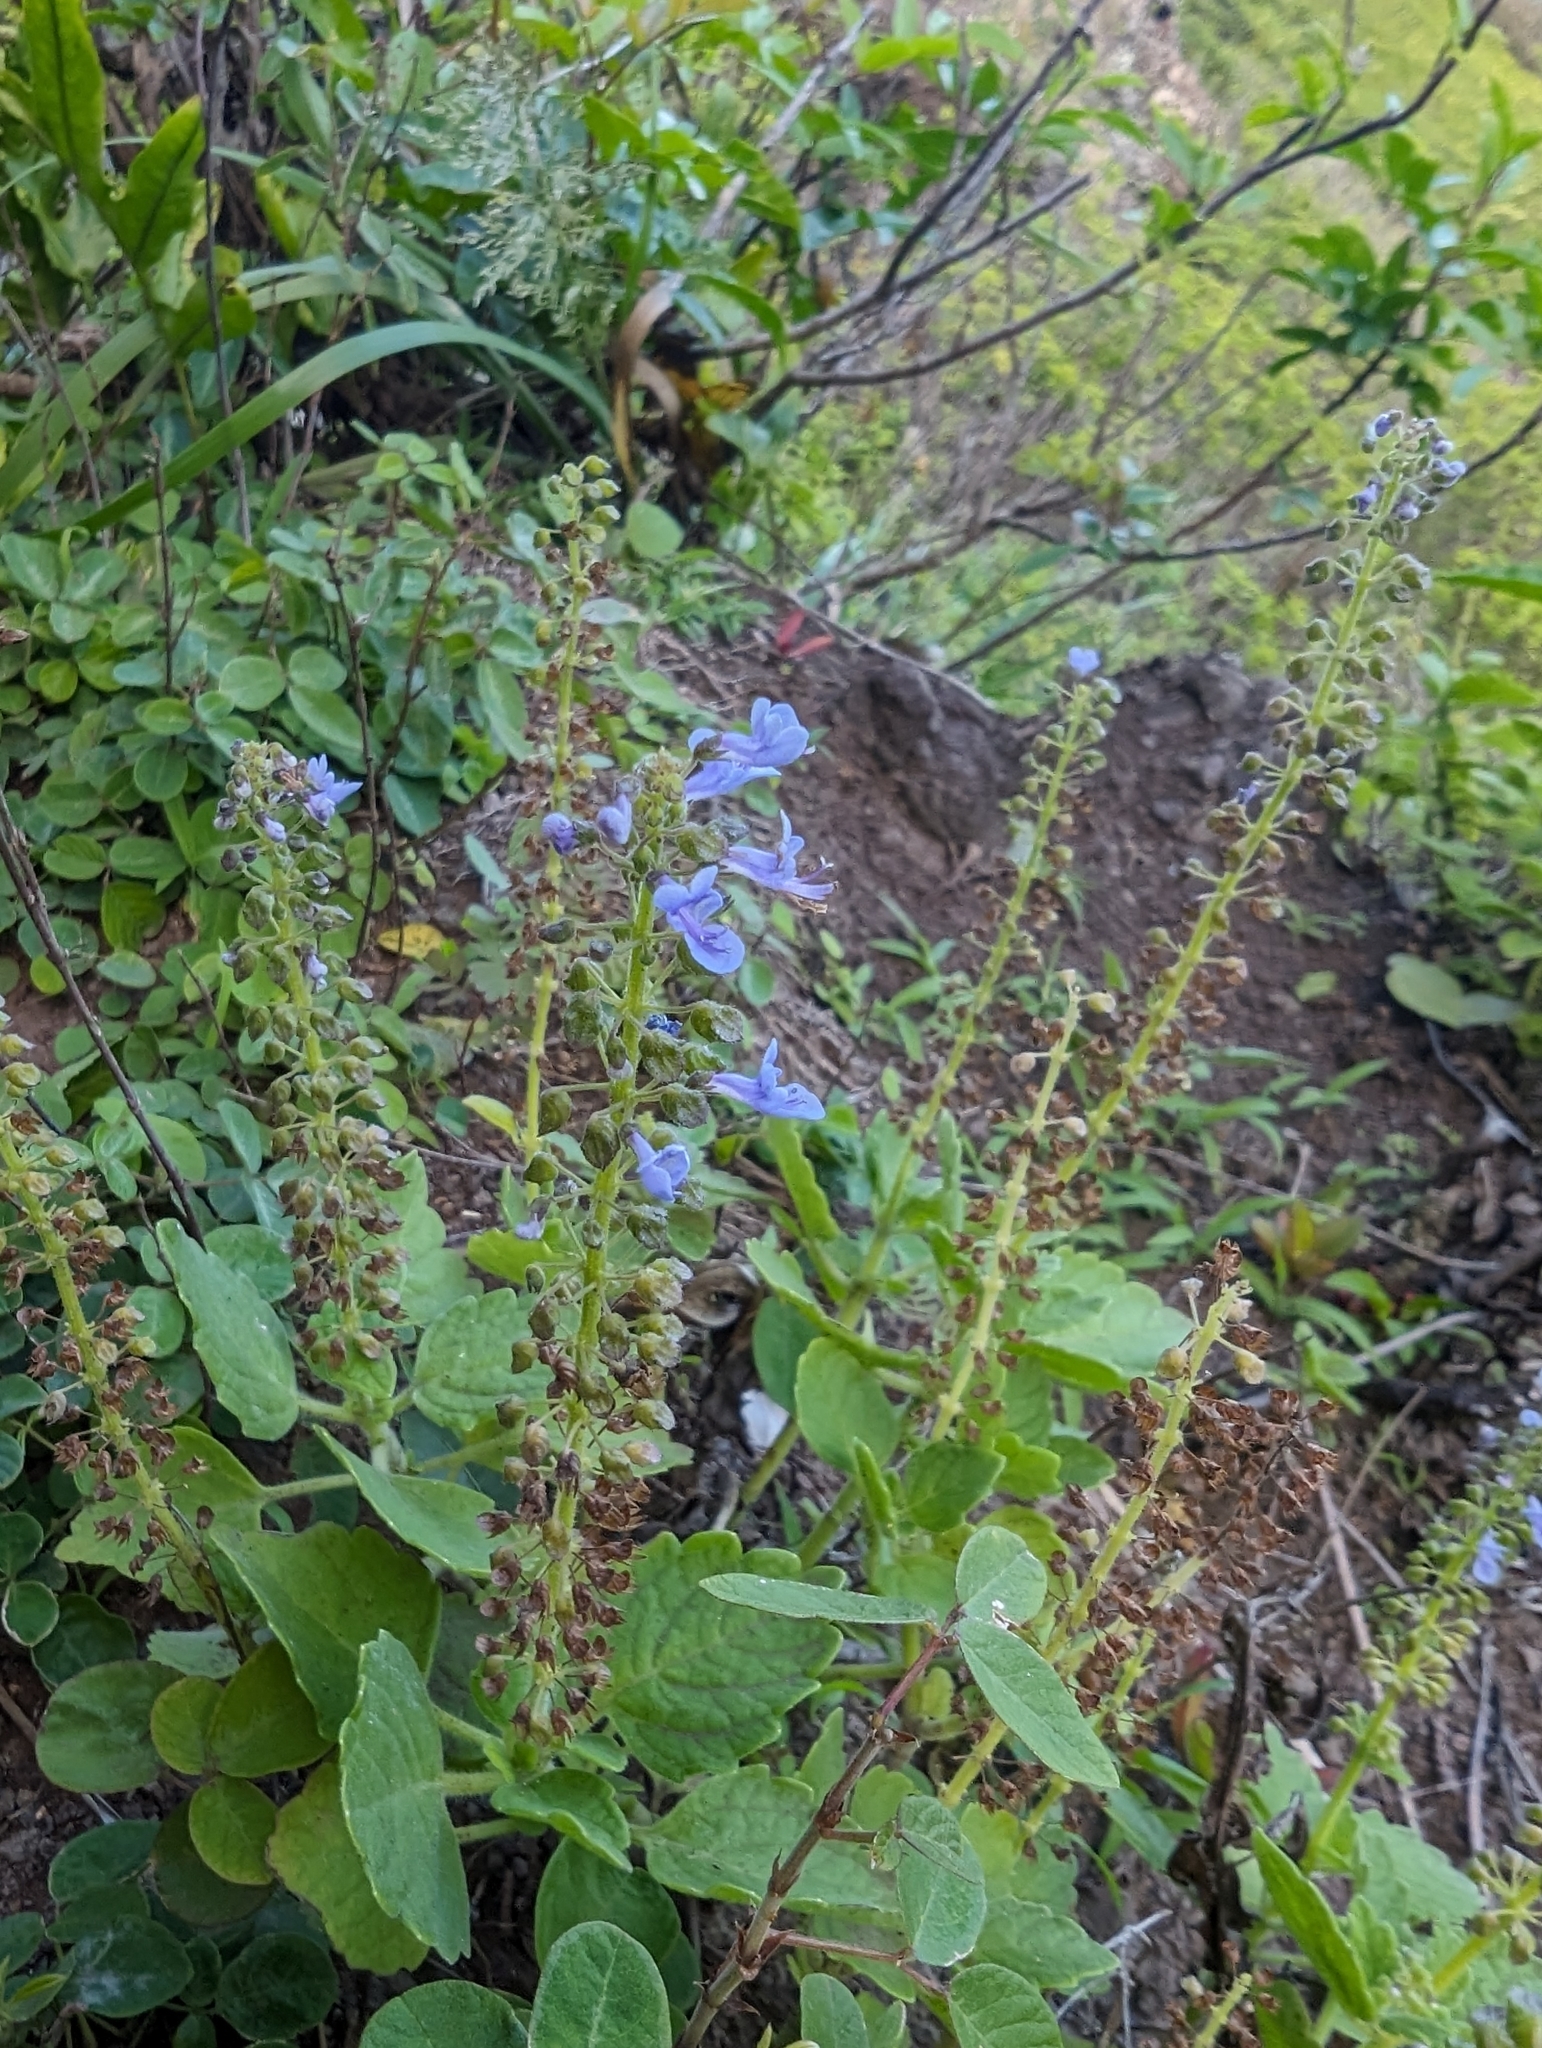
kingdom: Plantae
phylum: Tracheophyta
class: Magnoliopsida
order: Lamiales
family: Lamiaceae
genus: Coleus
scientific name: Coleus australis
